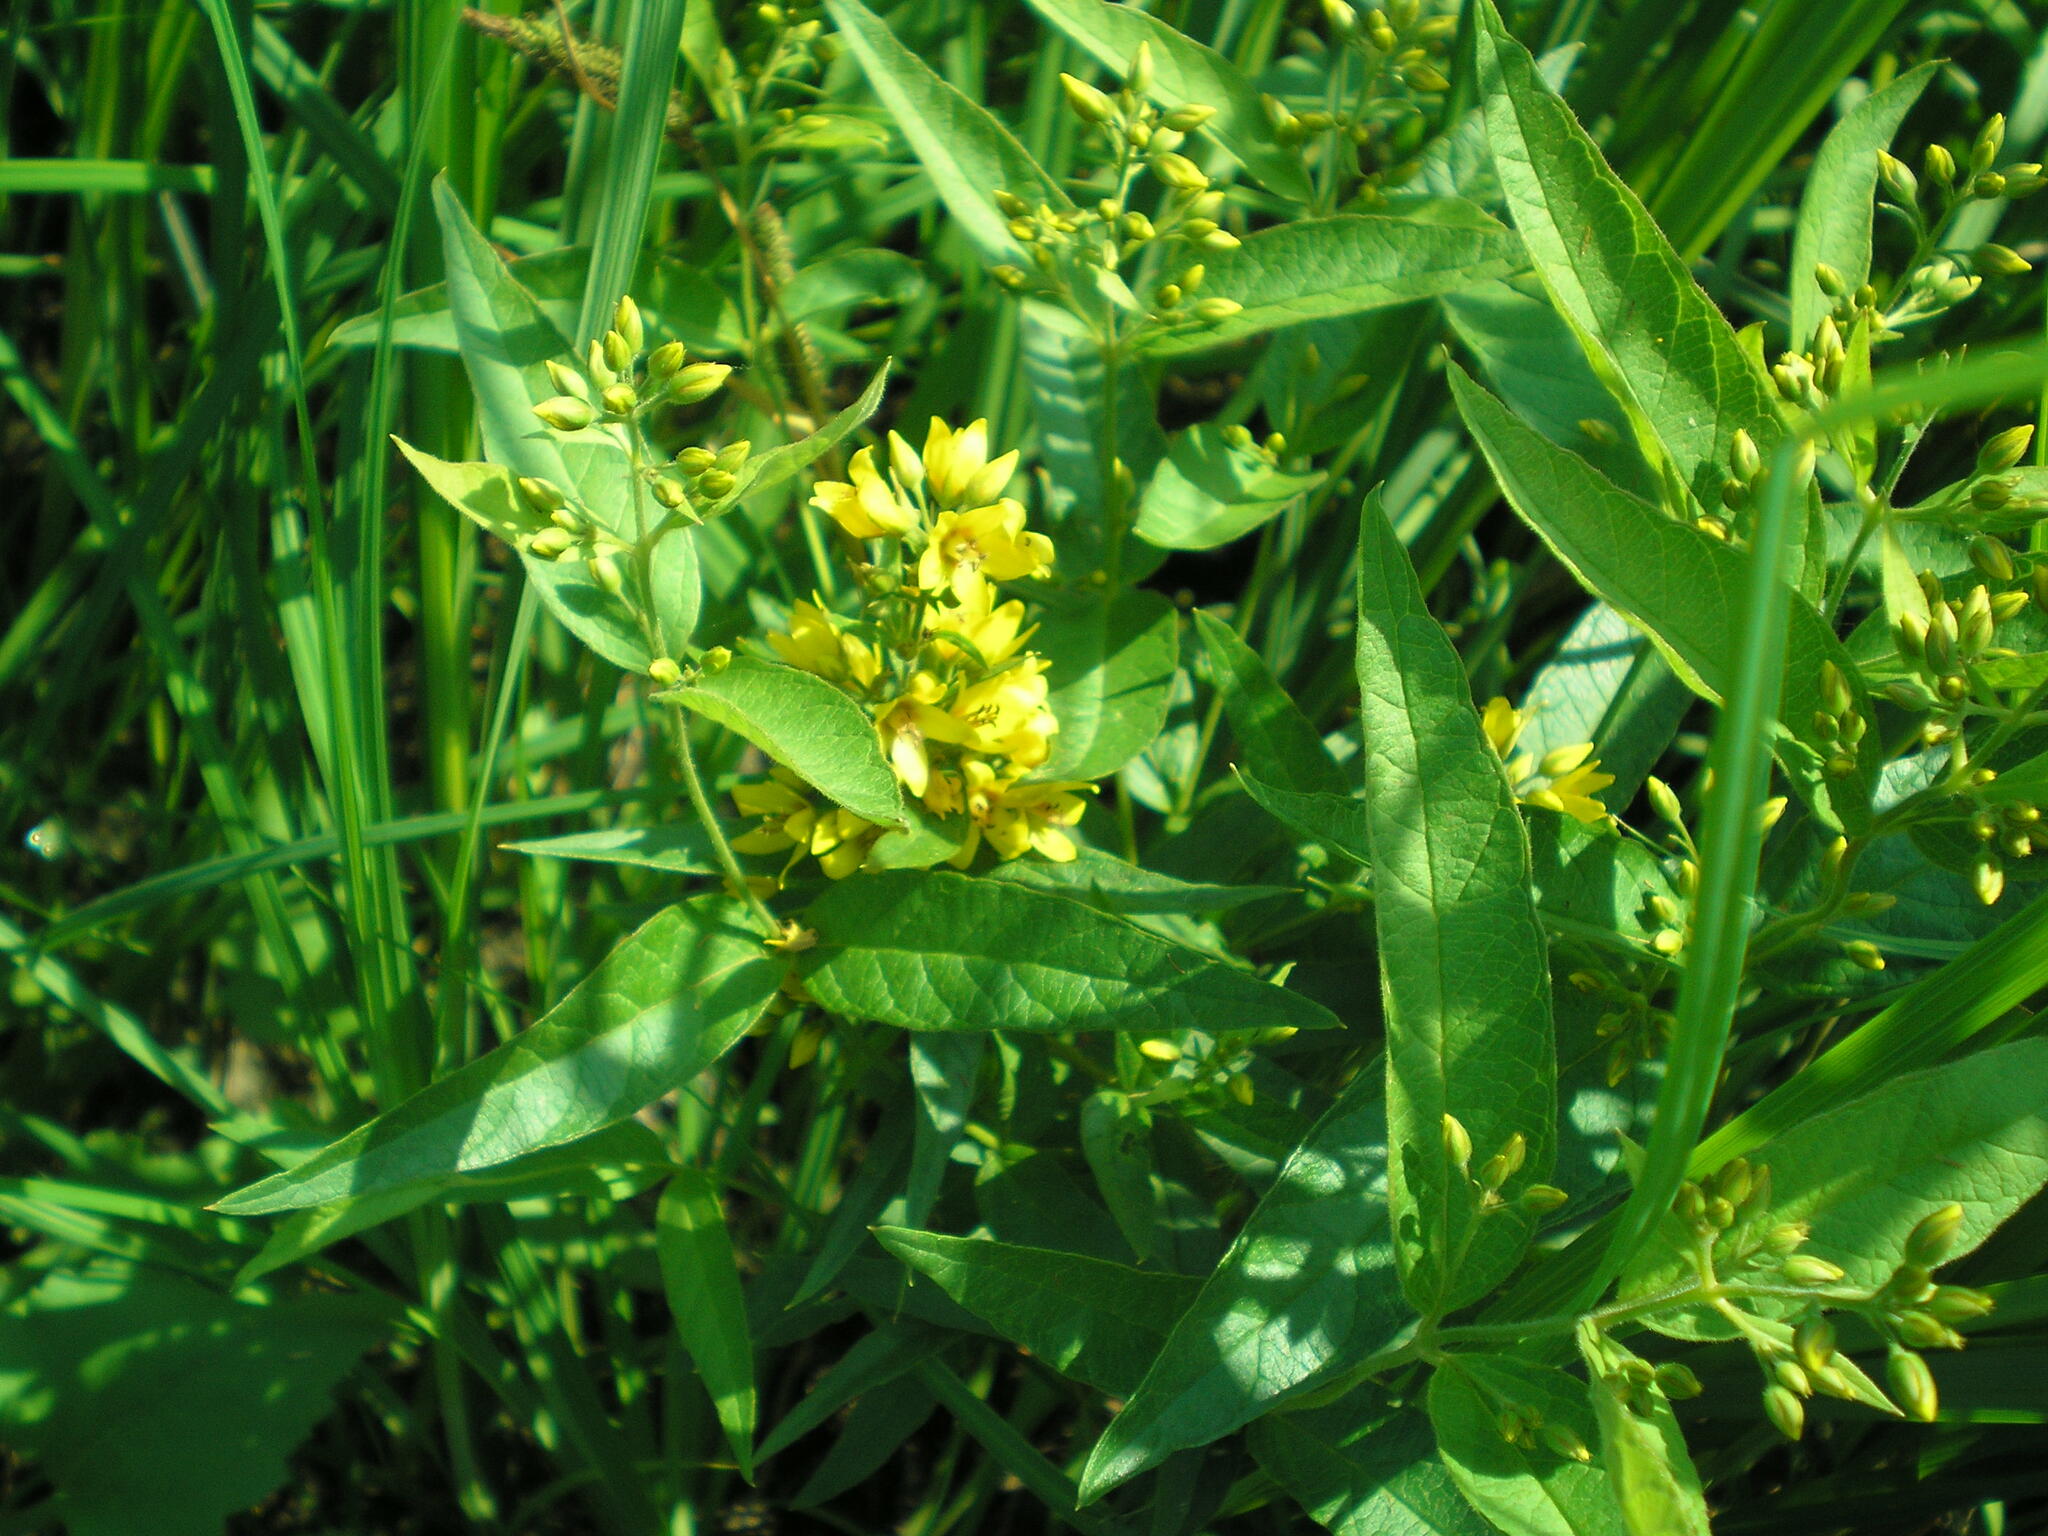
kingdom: Plantae
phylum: Tracheophyta
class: Magnoliopsida
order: Ericales
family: Primulaceae
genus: Lysimachia
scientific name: Lysimachia vulgaris
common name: Yellow loosestrife
